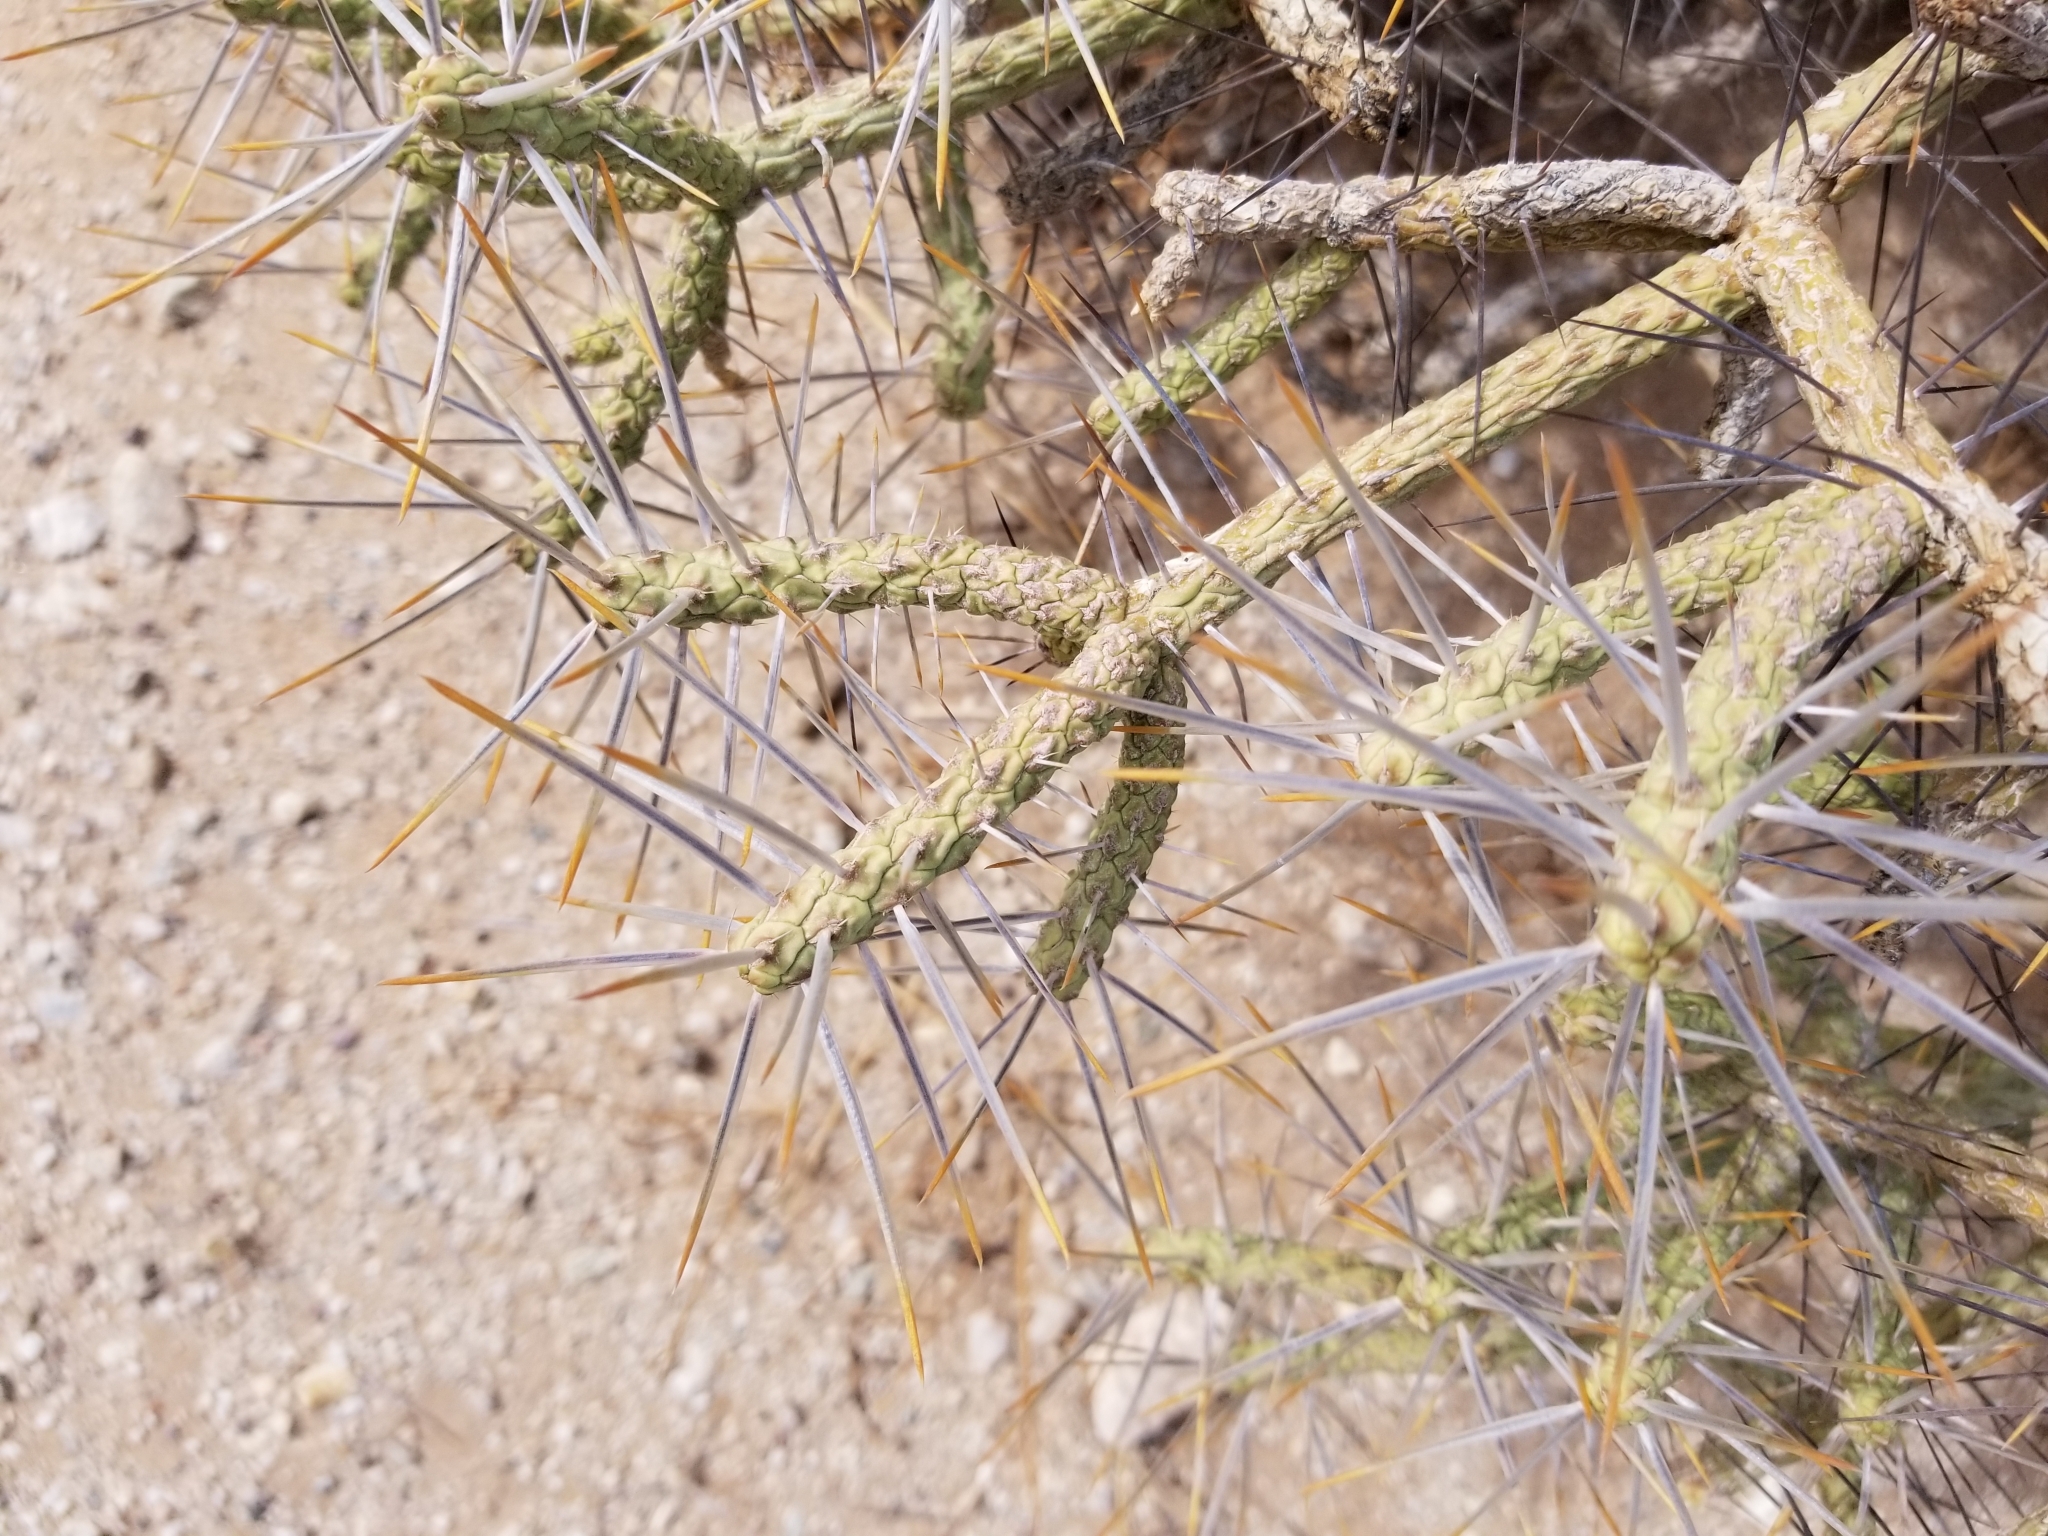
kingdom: Plantae
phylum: Tracheophyta
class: Magnoliopsida
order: Caryophyllales
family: Cactaceae
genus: Cylindropuntia
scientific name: Cylindropuntia ramosissima
